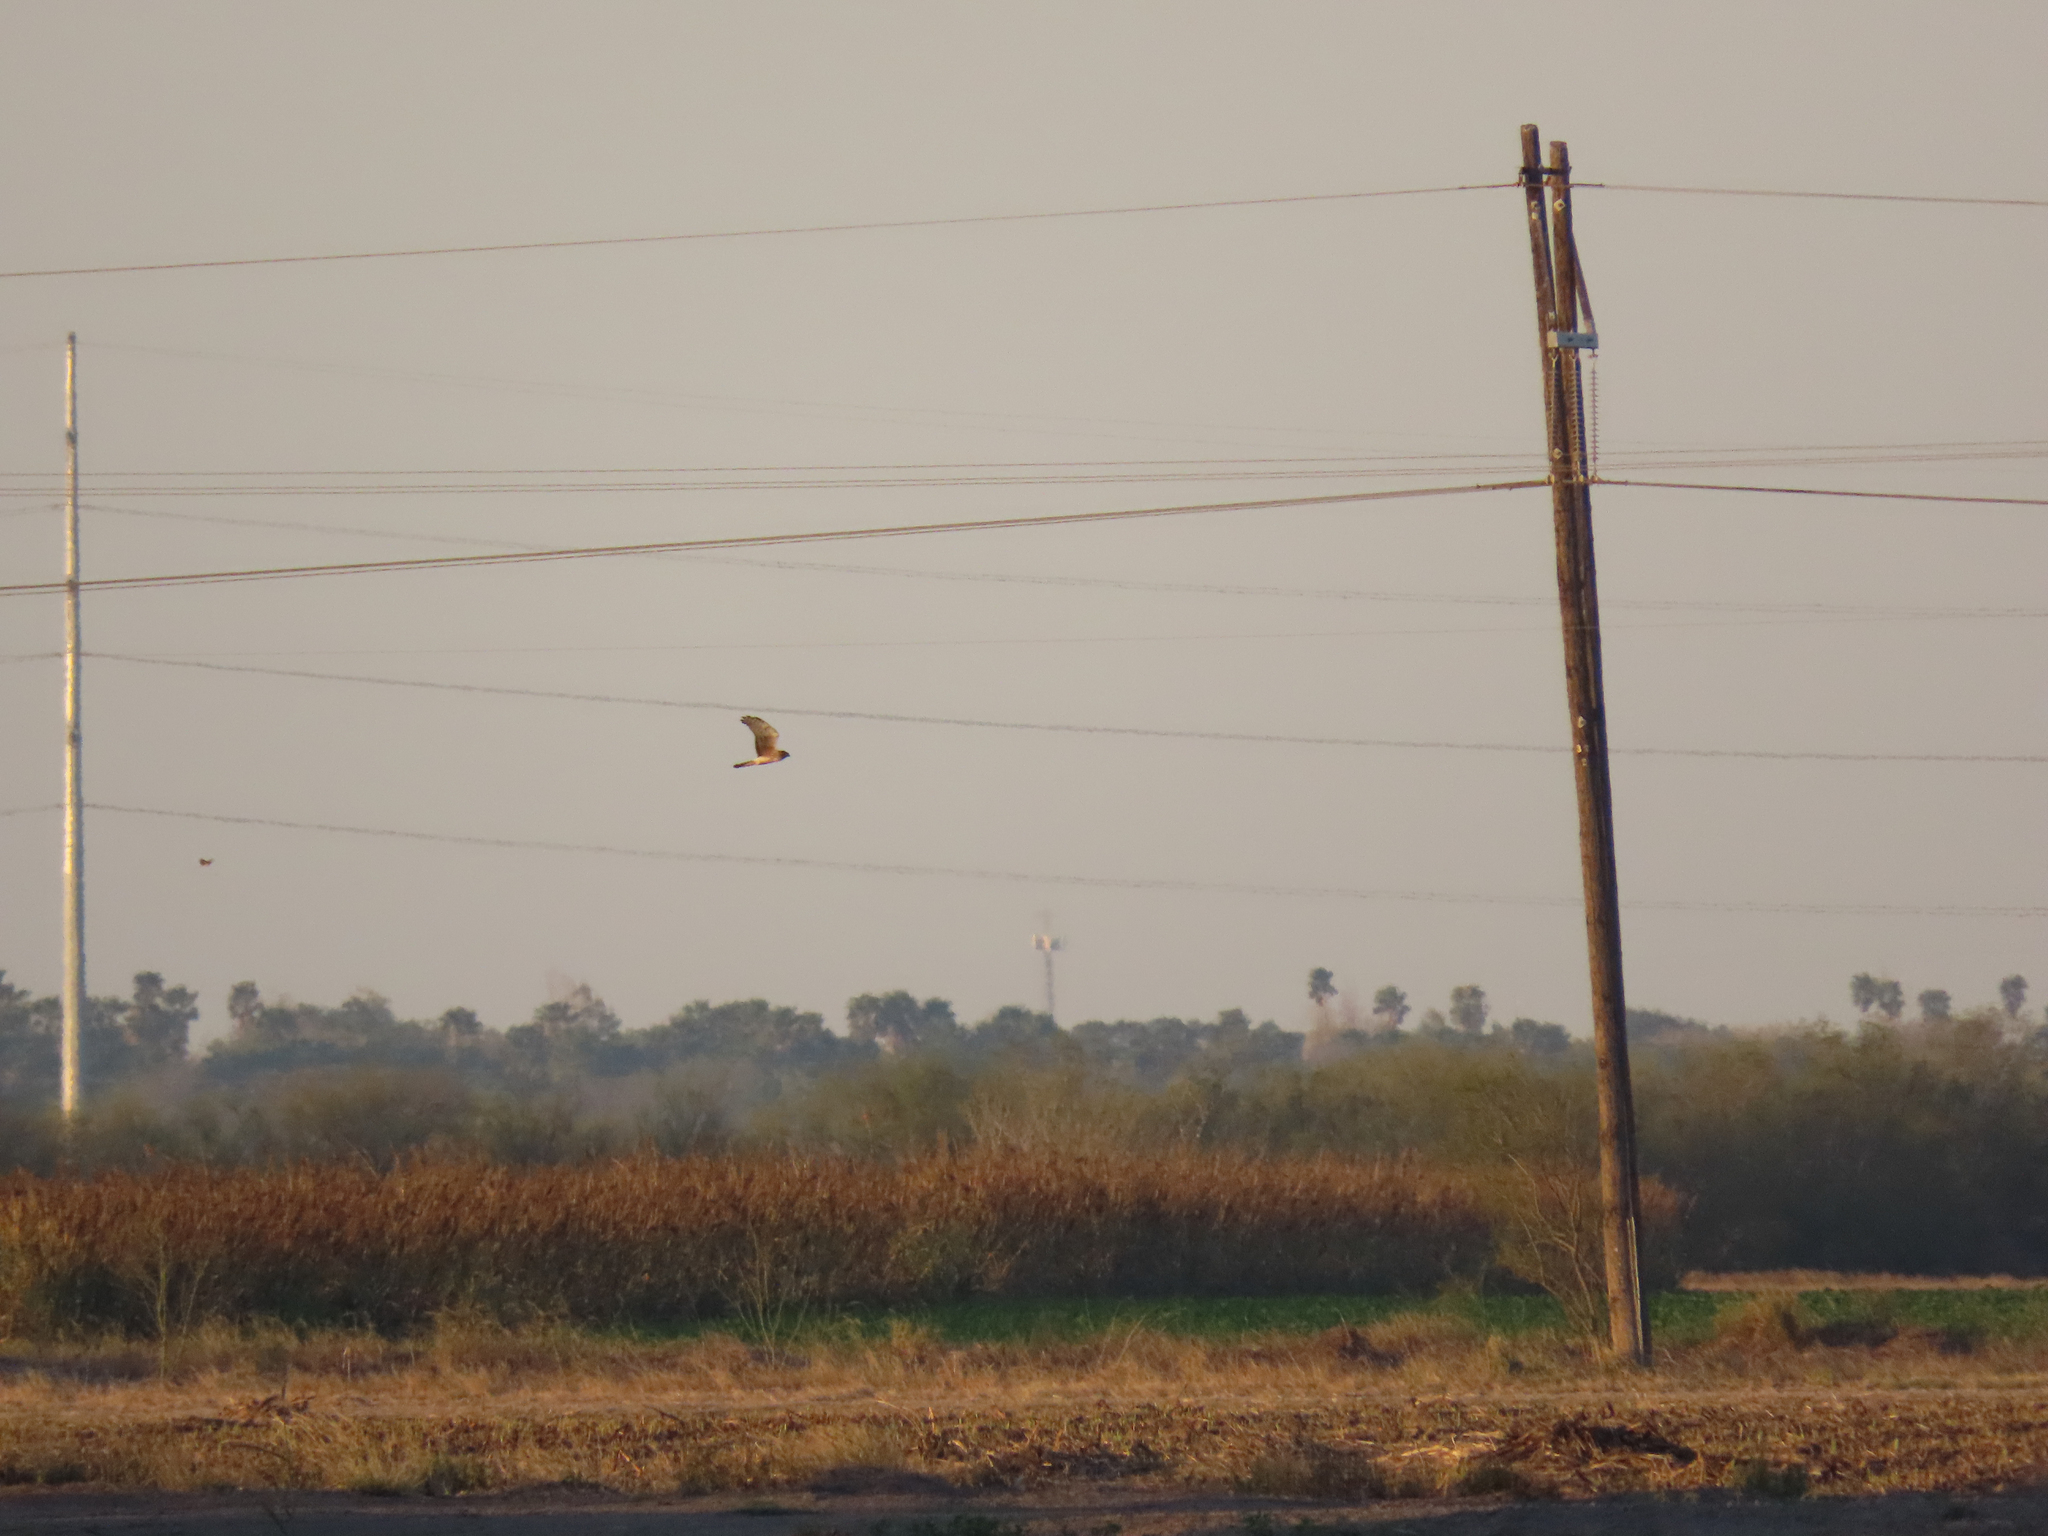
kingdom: Animalia
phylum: Chordata
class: Aves
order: Accipitriformes
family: Accipitridae
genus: Circus
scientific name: Circus cyaneus
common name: Hen harrier
